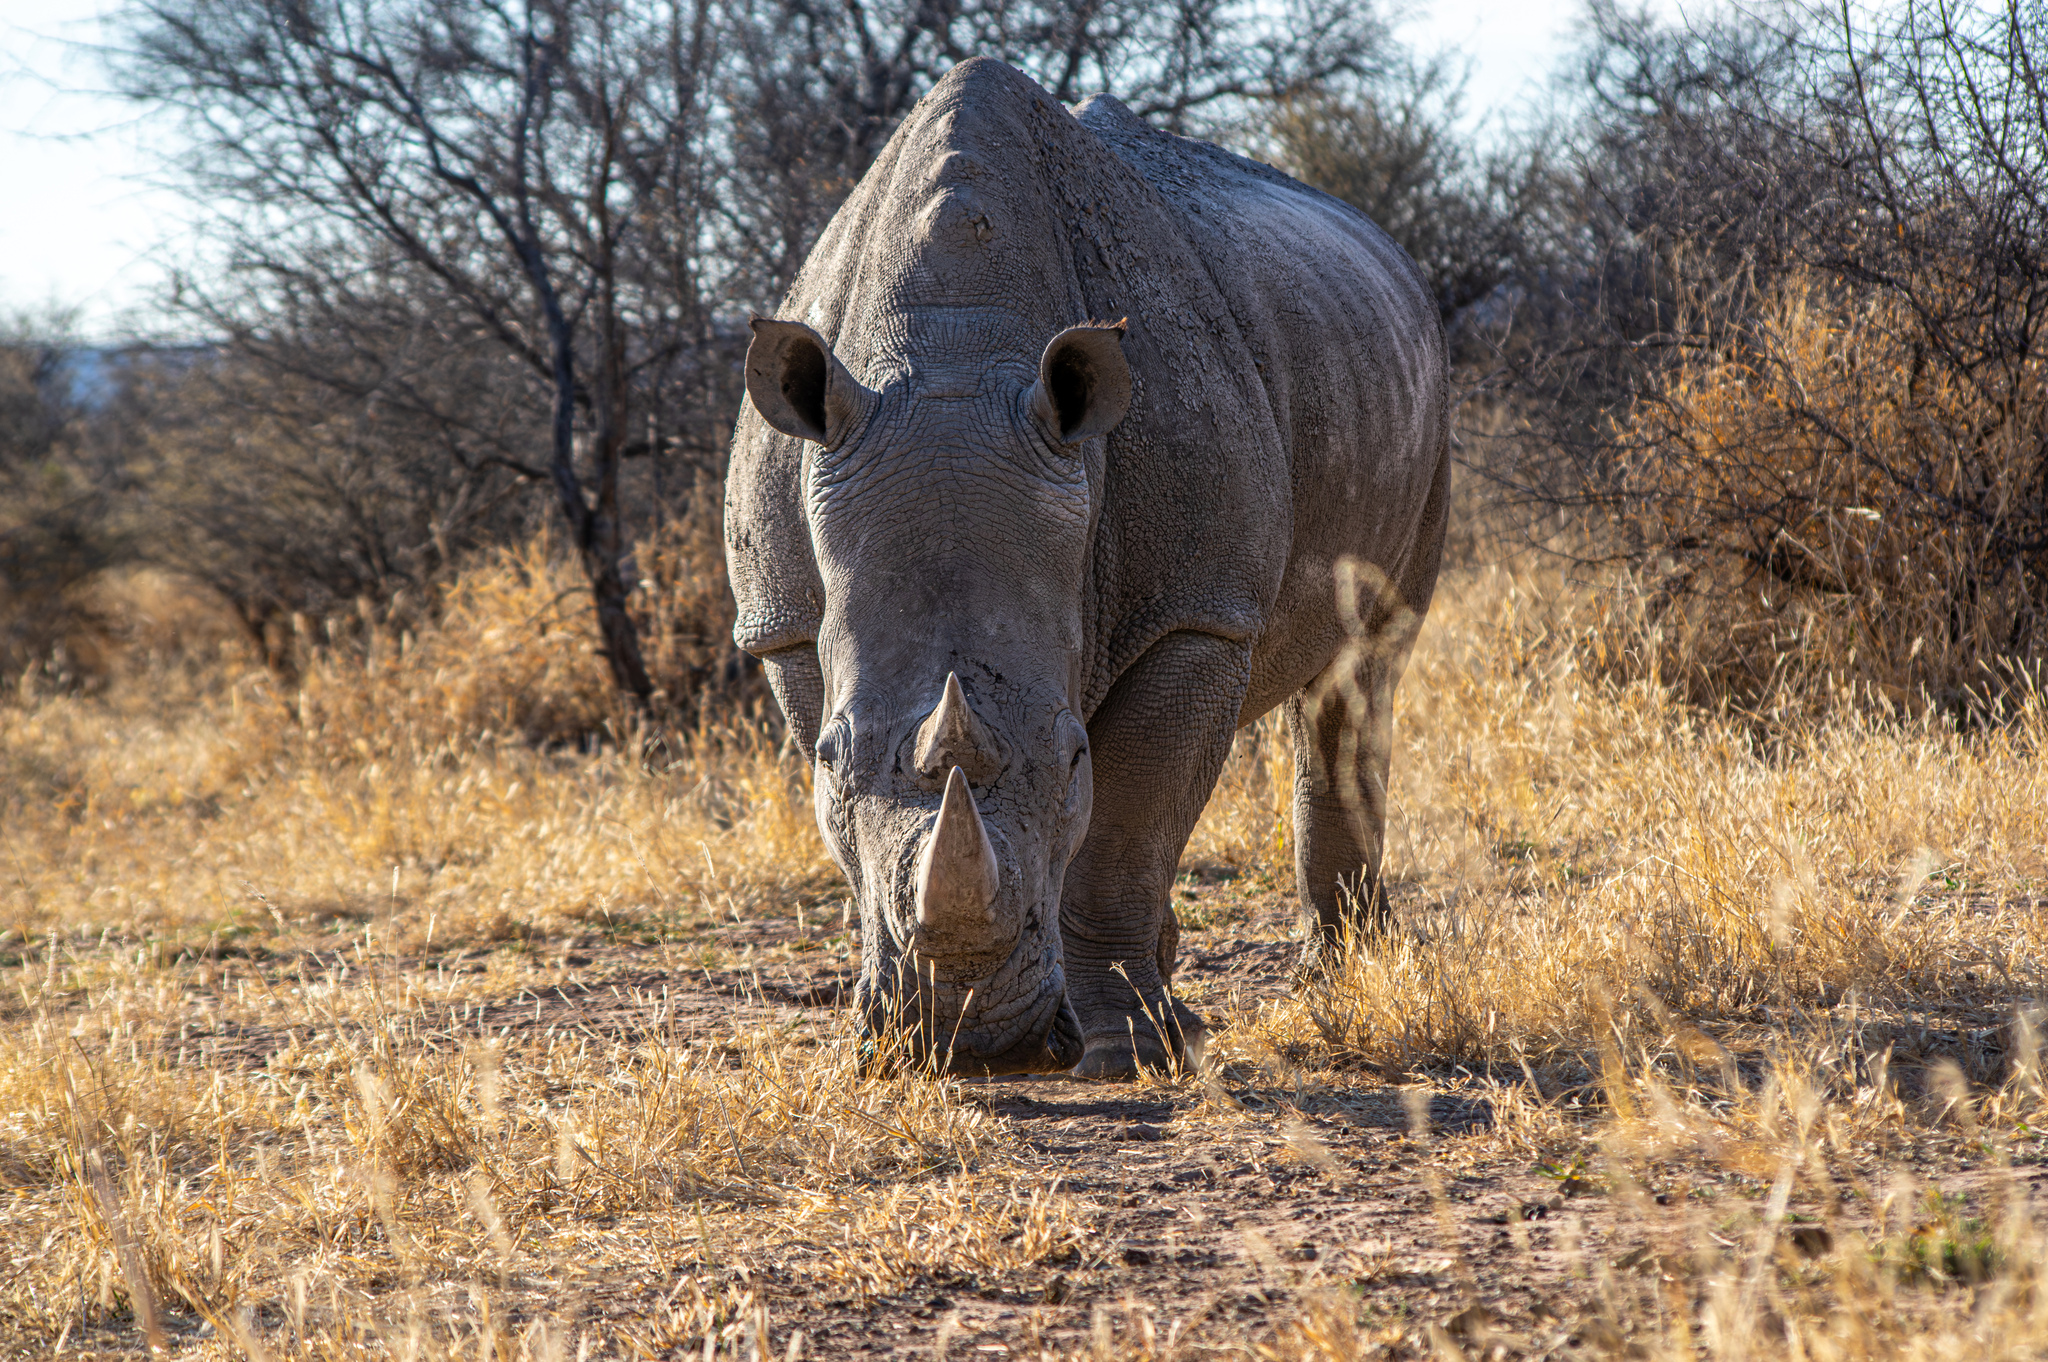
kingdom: Animalia
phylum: Chordata
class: Mammalia
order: Perissodactyla
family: Rhinocerotidae
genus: Ceratotherium
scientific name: Ceratotherium simum
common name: White rhinoceros
